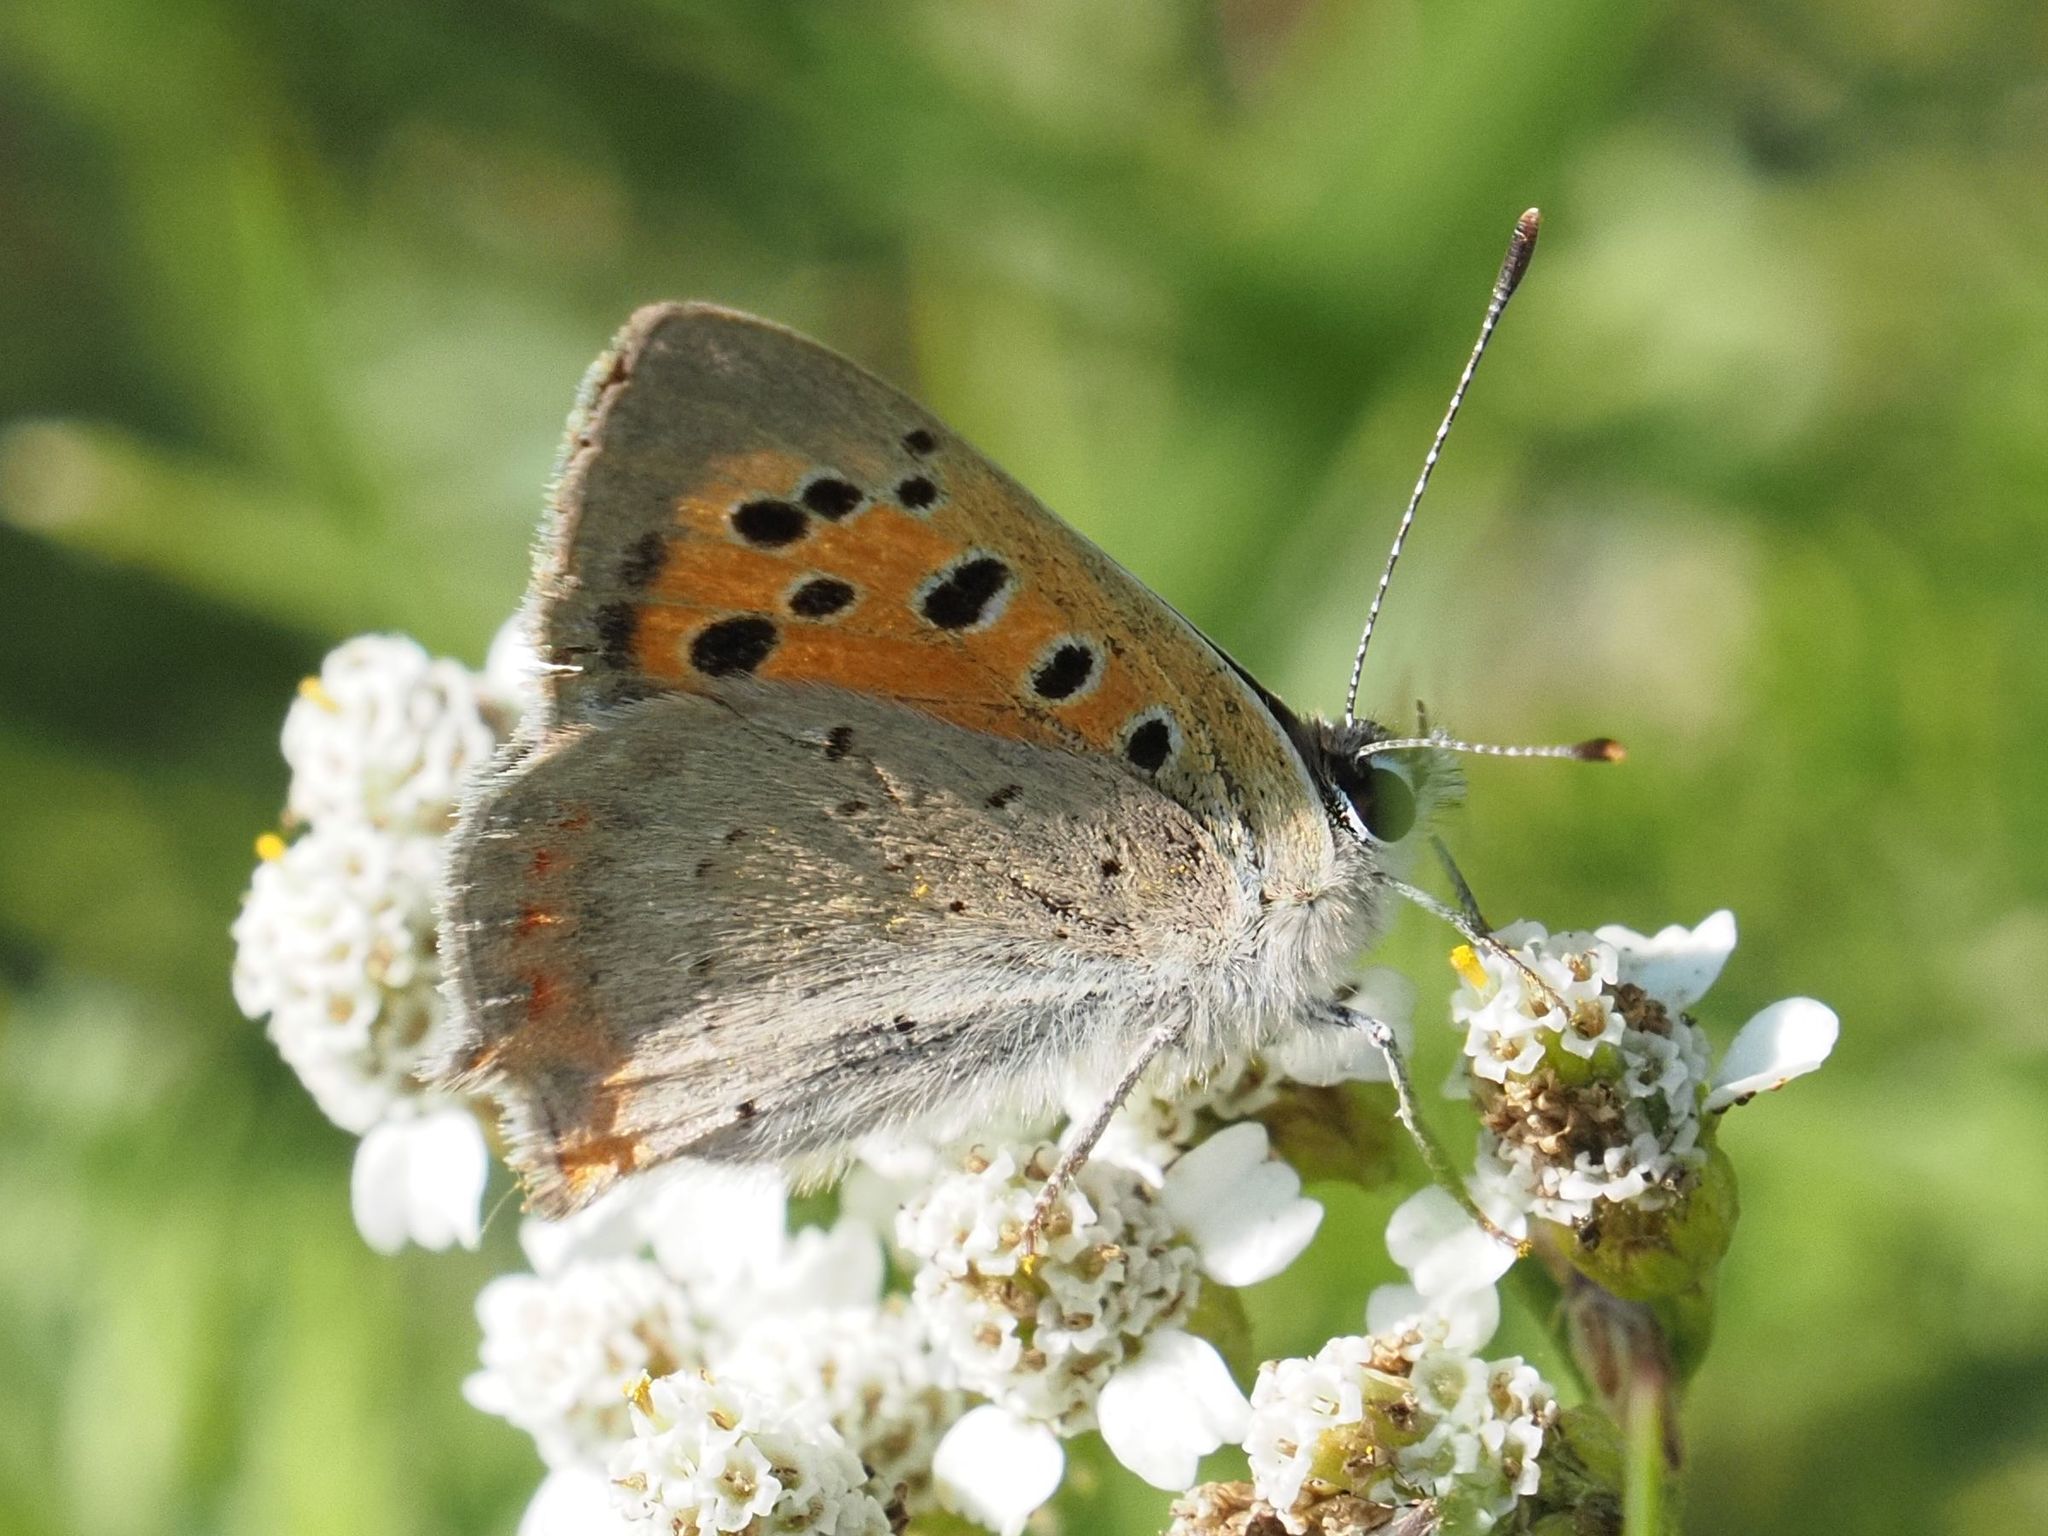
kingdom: Animalia
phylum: Arthropoda
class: Insecta
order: Lepidoptera
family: Lycaenidae
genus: Lycaena
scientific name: Lycaena phlaeas
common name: Small copper
